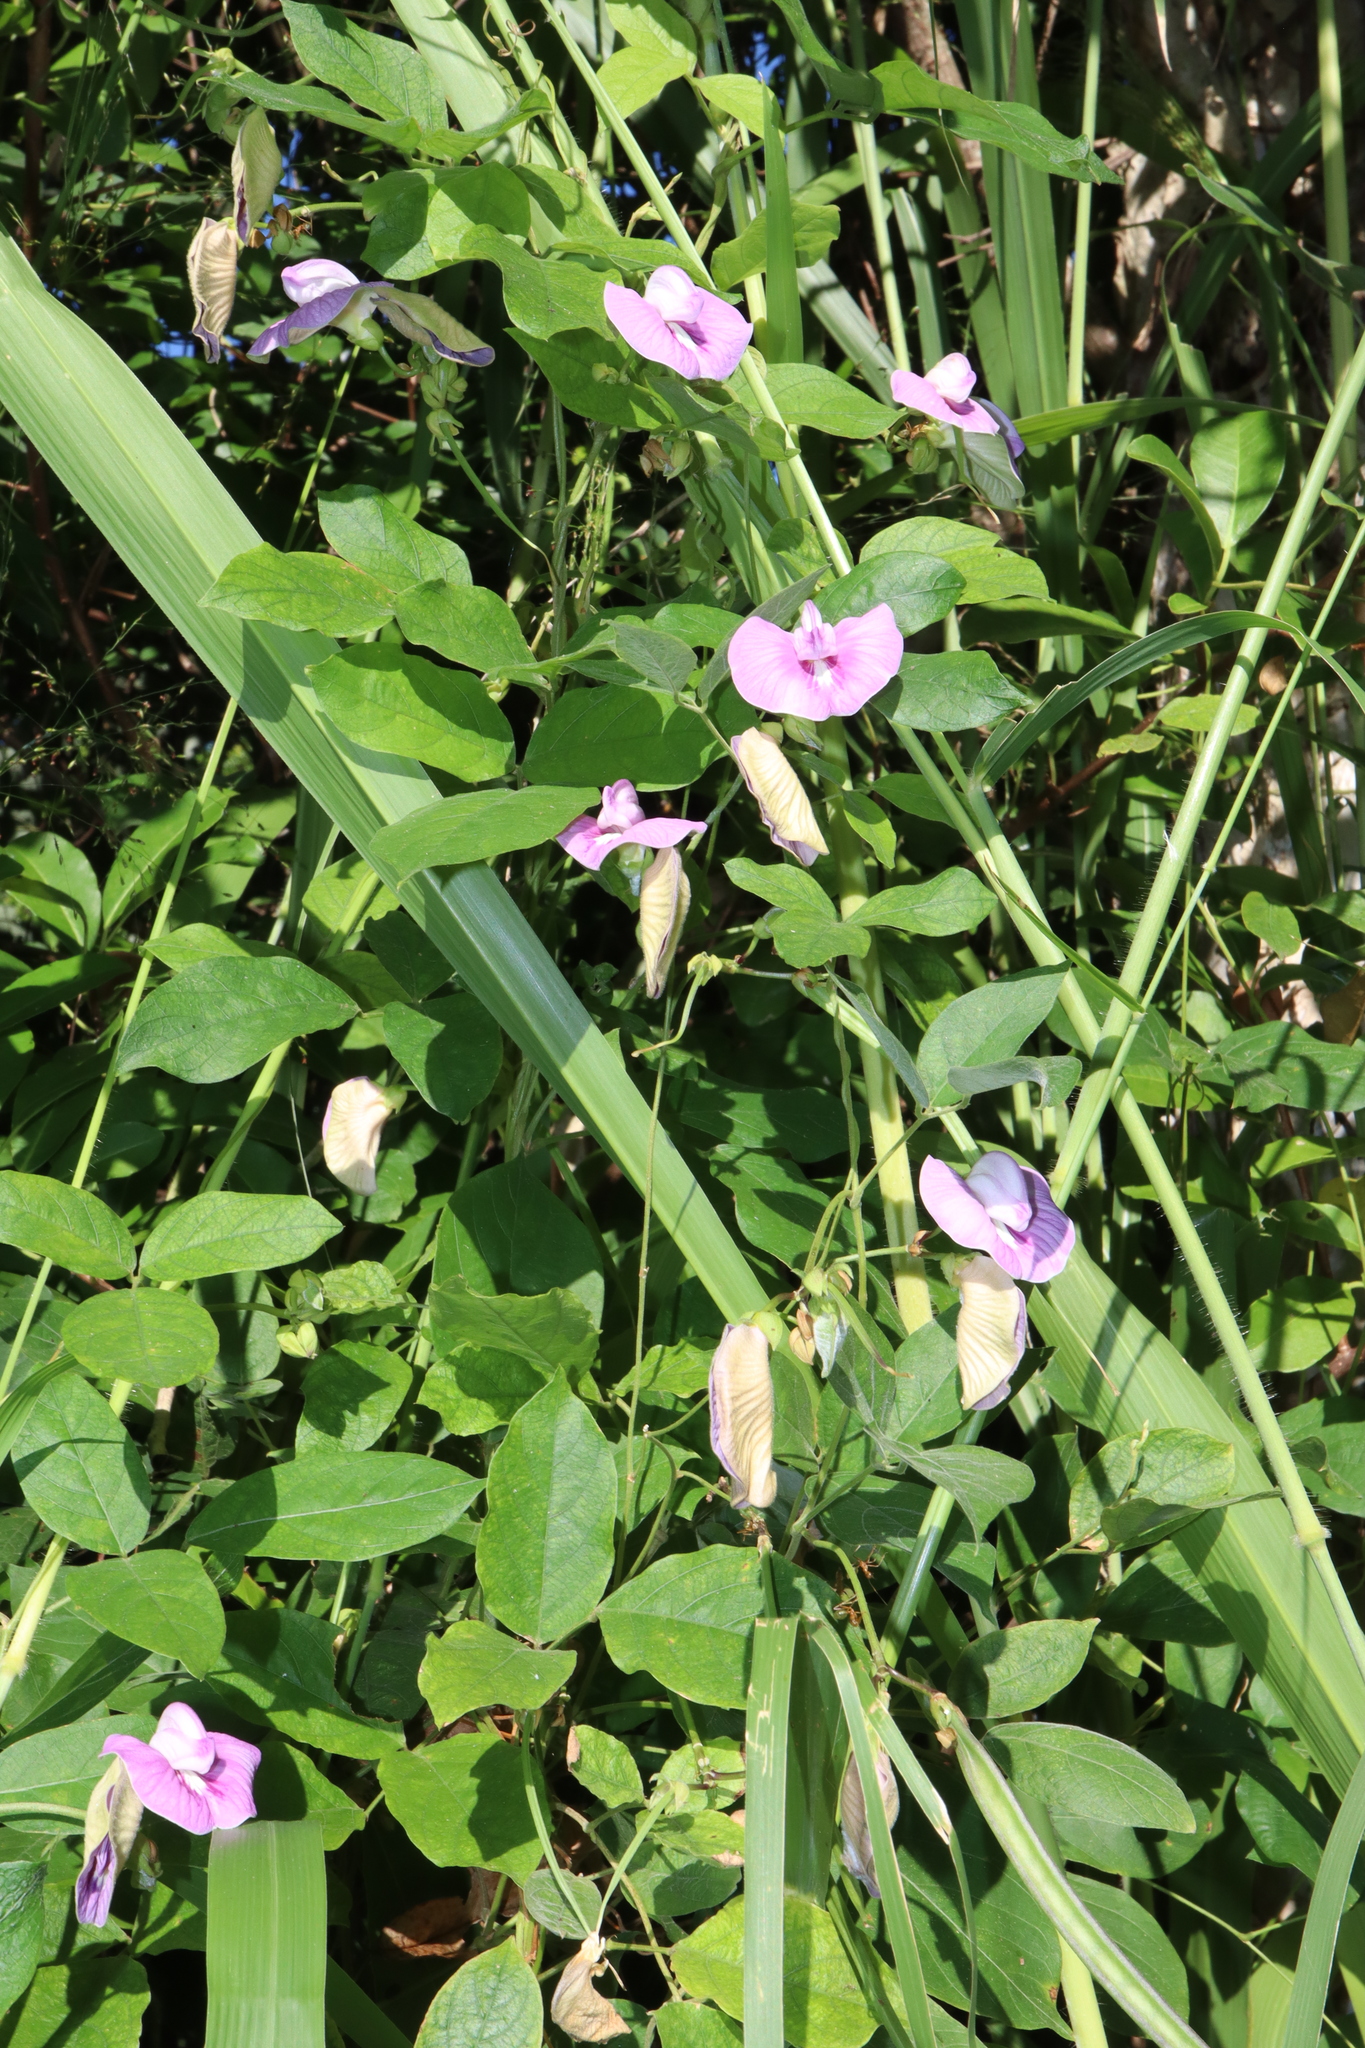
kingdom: Plantae
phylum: Tracheophyta
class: Magnoliopsida
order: Fabales
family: Fabaceae
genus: Centrosema
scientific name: Centrosema molle
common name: Soft butterfly pea
